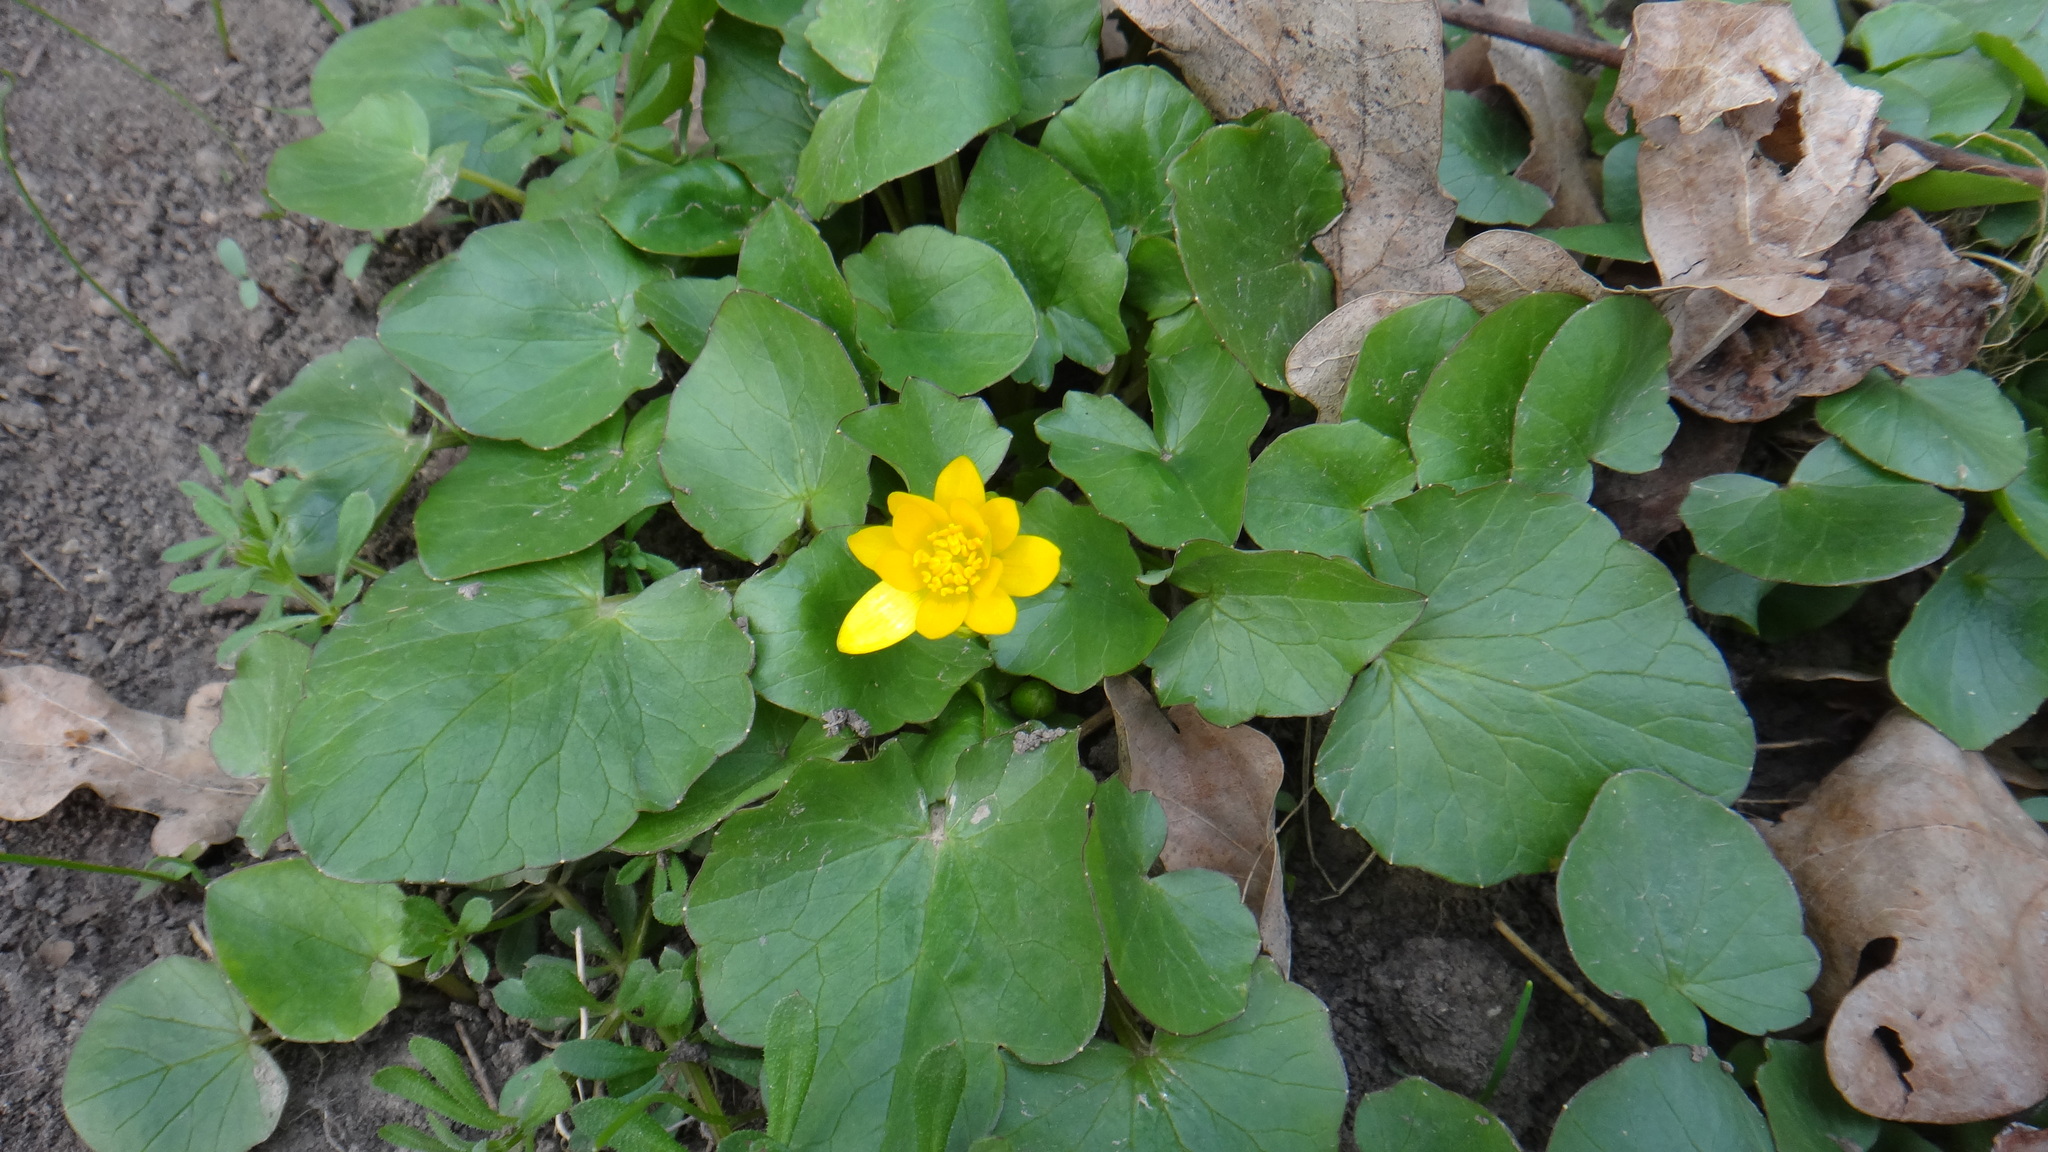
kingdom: Plantae
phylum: Tracheophyta
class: Magnoliopsida
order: Ranunculales
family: Ranunculaceae
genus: Ficaria
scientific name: Ficaria verna
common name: Lesser celandine
